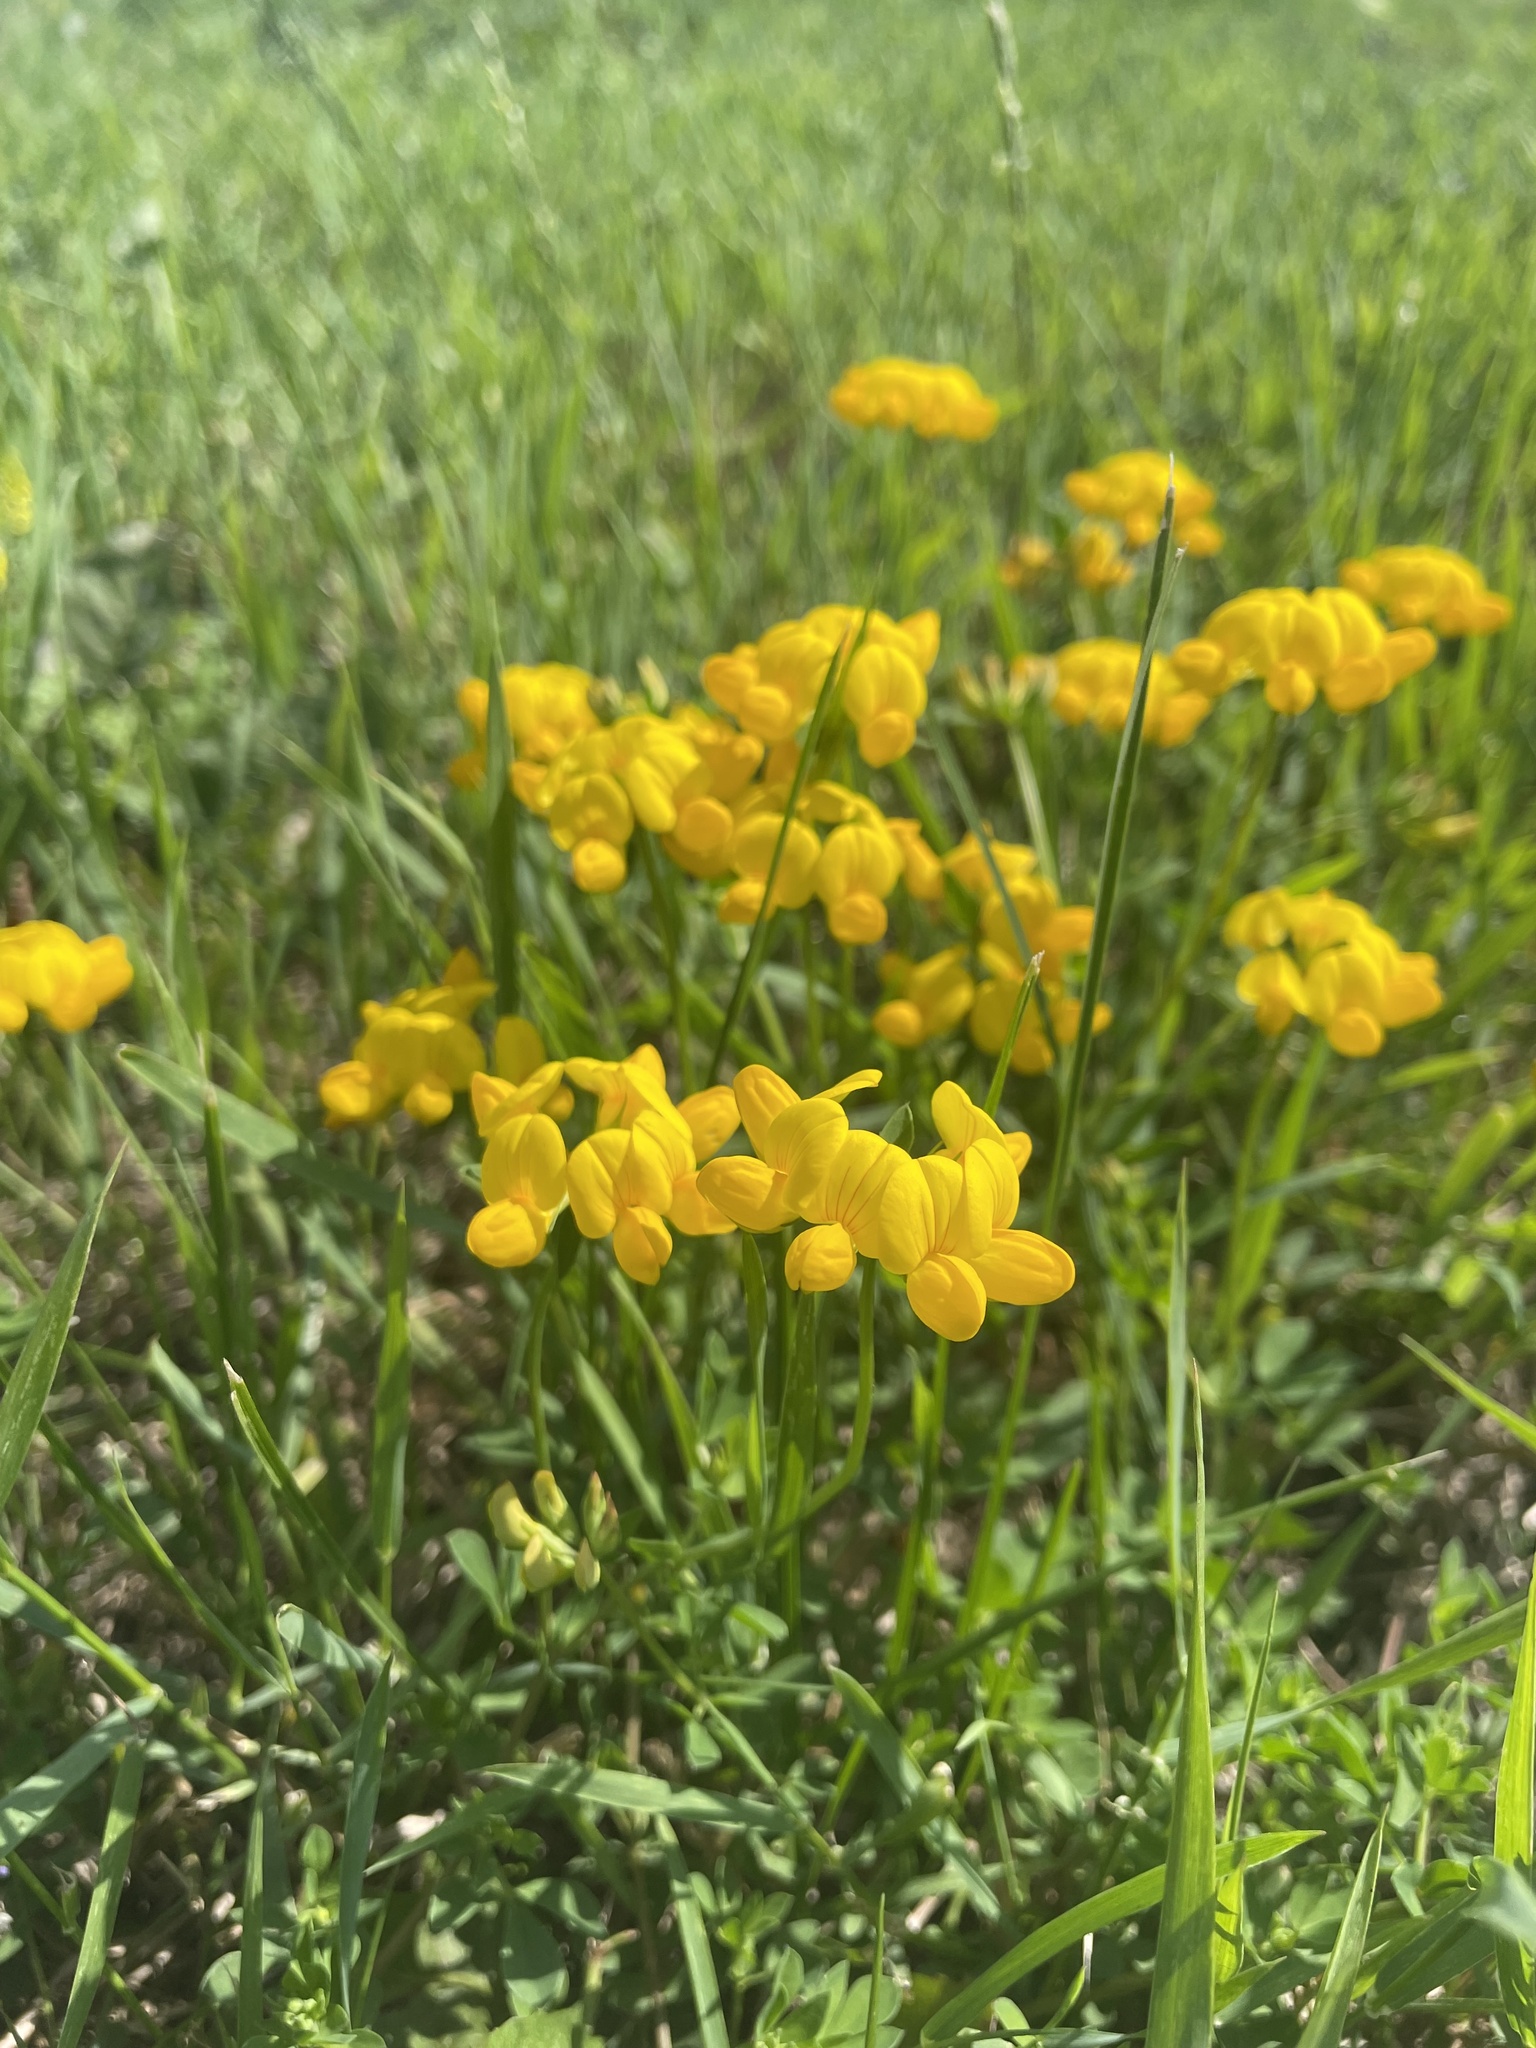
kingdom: Plantae
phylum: Tracheophyta
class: Magnoliopsida
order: Fabales
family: Fabaceae
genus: Lotus
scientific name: Lotus corniculatus
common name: Common bird's-foot-trefoil
